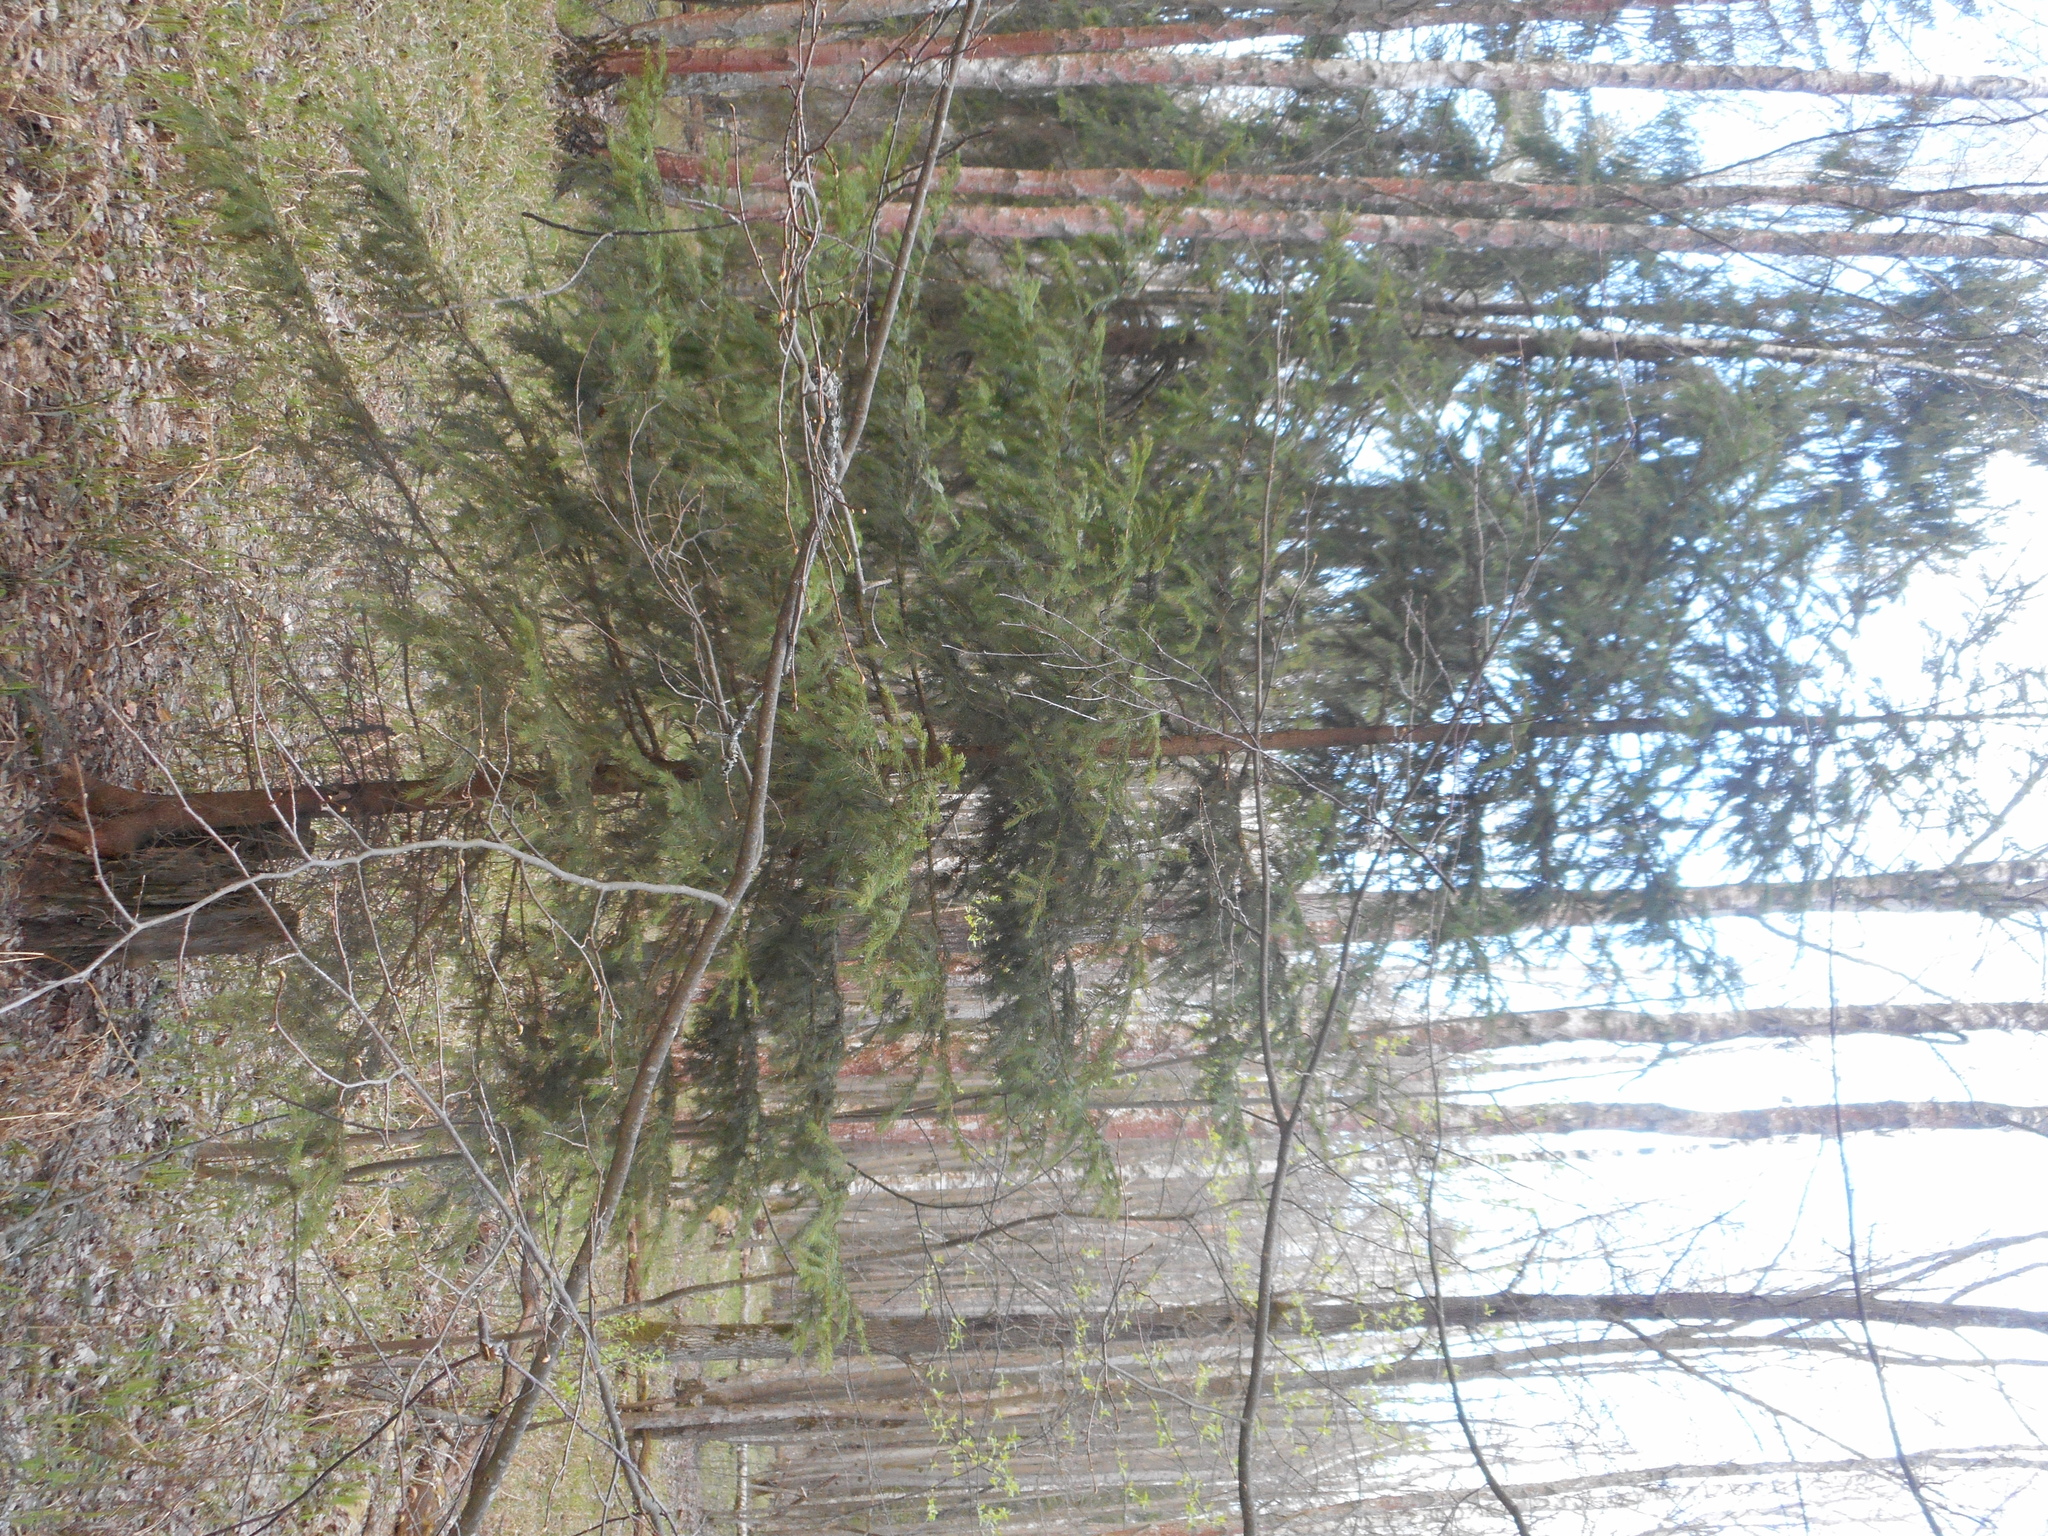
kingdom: Plantae
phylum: Tracheophyta
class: Pinopsida
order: Pinales
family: Pinaceae
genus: Picea
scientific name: Picea abies
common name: Norway spruce
